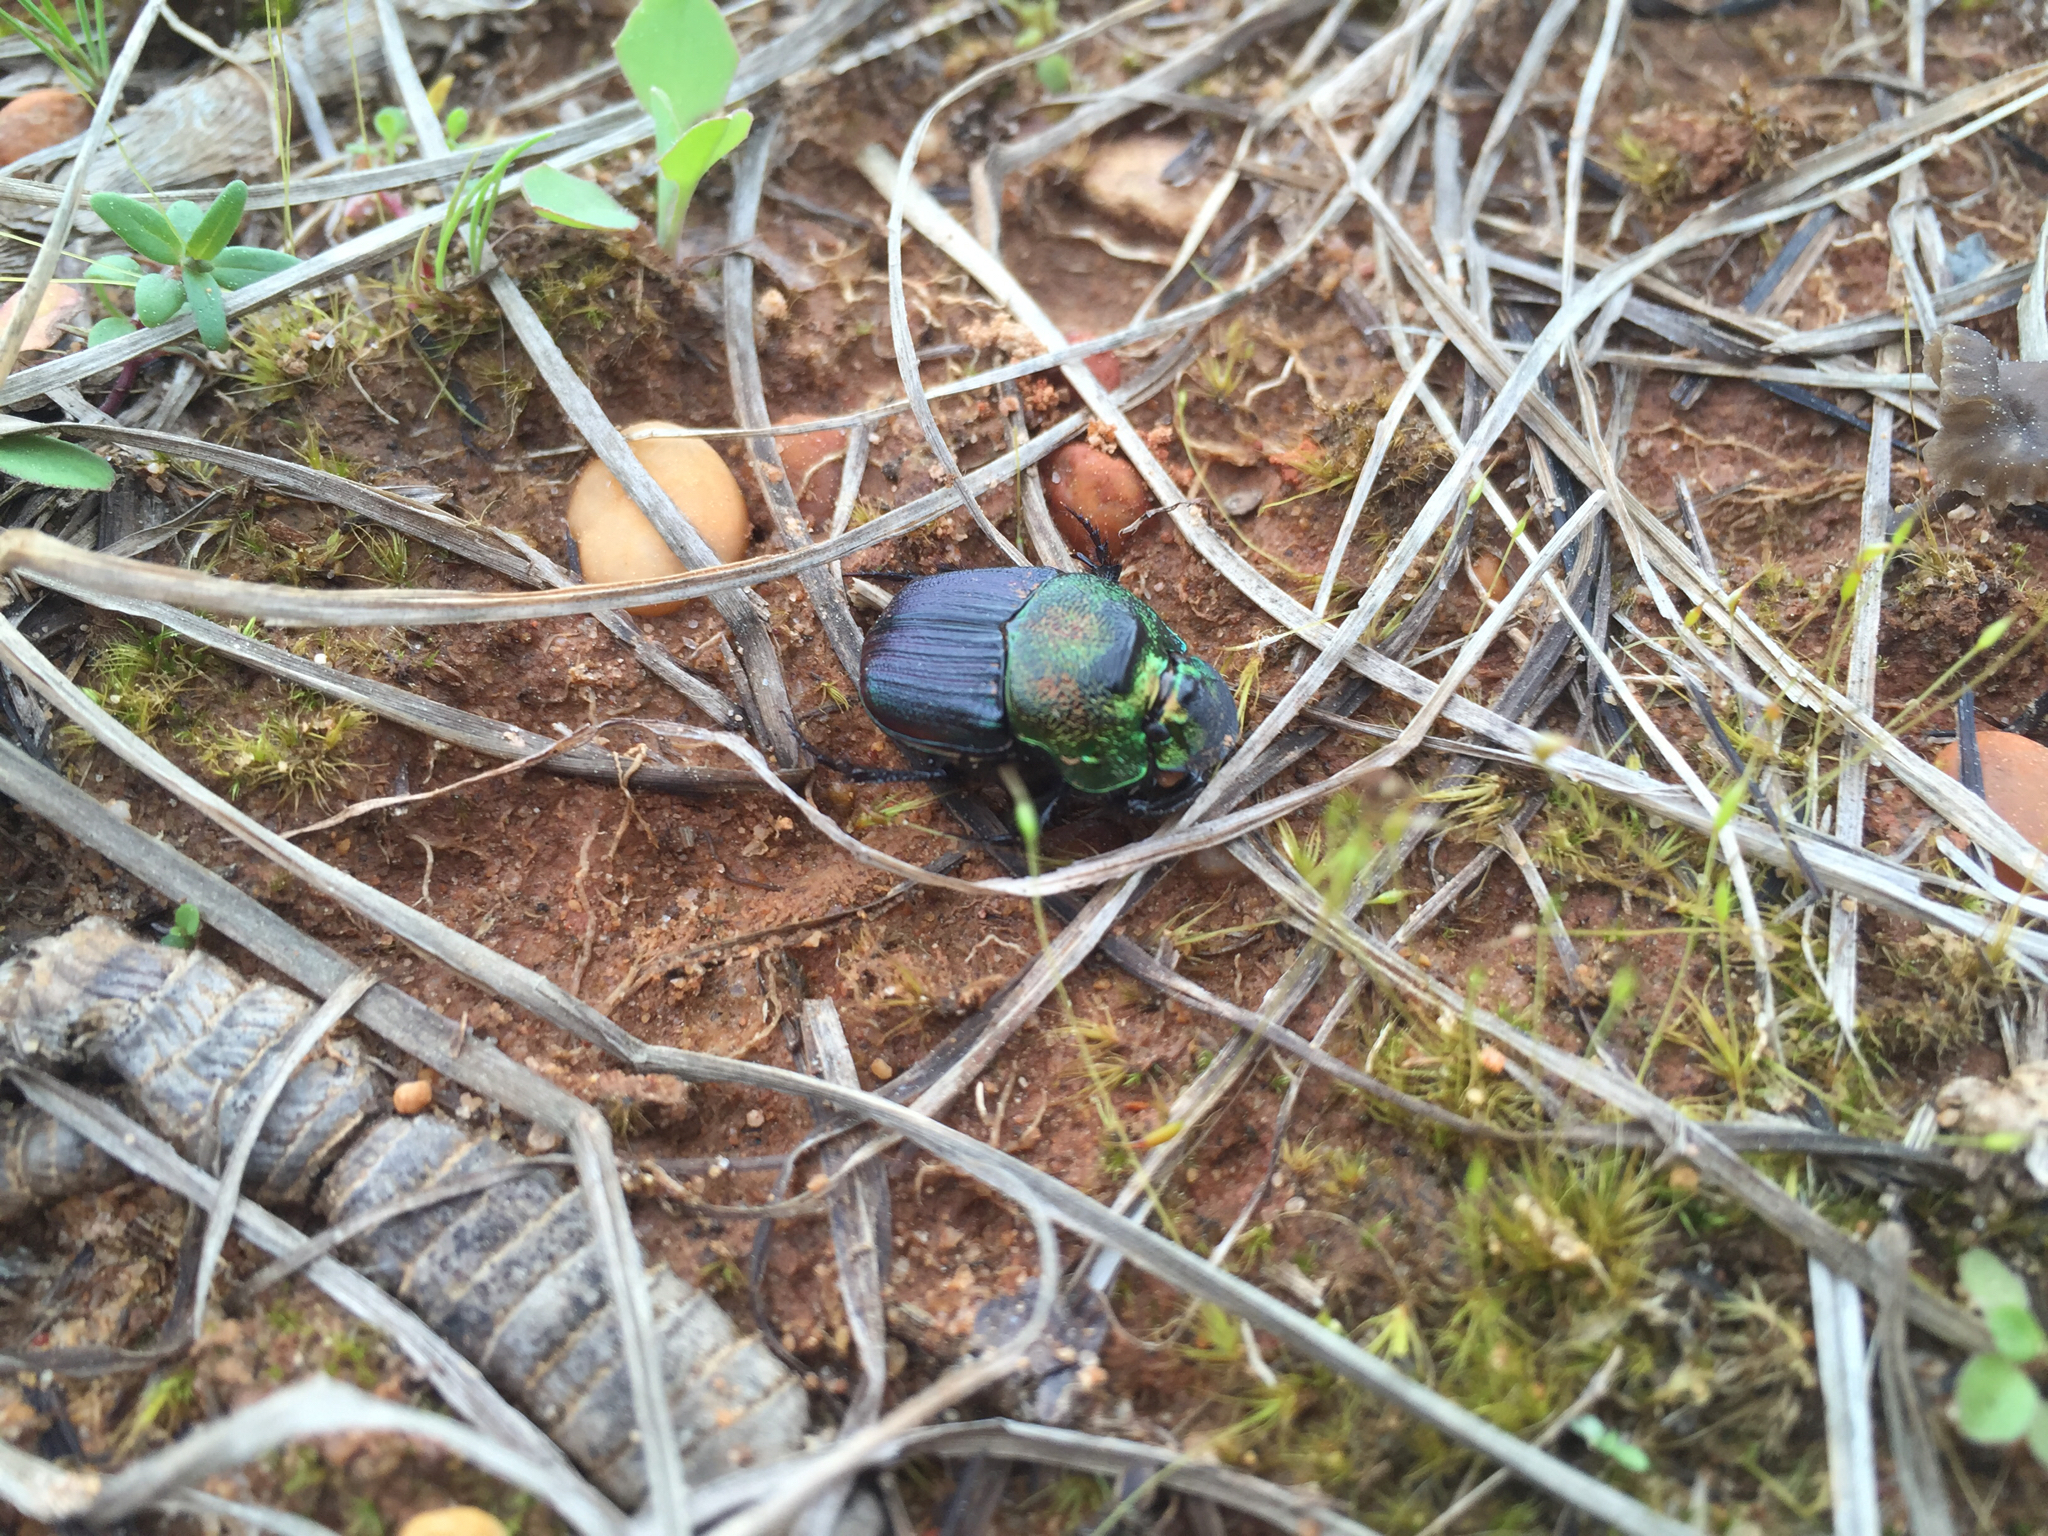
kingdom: Animalia
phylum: Arthropoda
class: Insecta
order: Coleoptera
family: Scarabaeidae
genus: Phanaeus
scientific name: Phanaeus vindex
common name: Rainbow scarab
